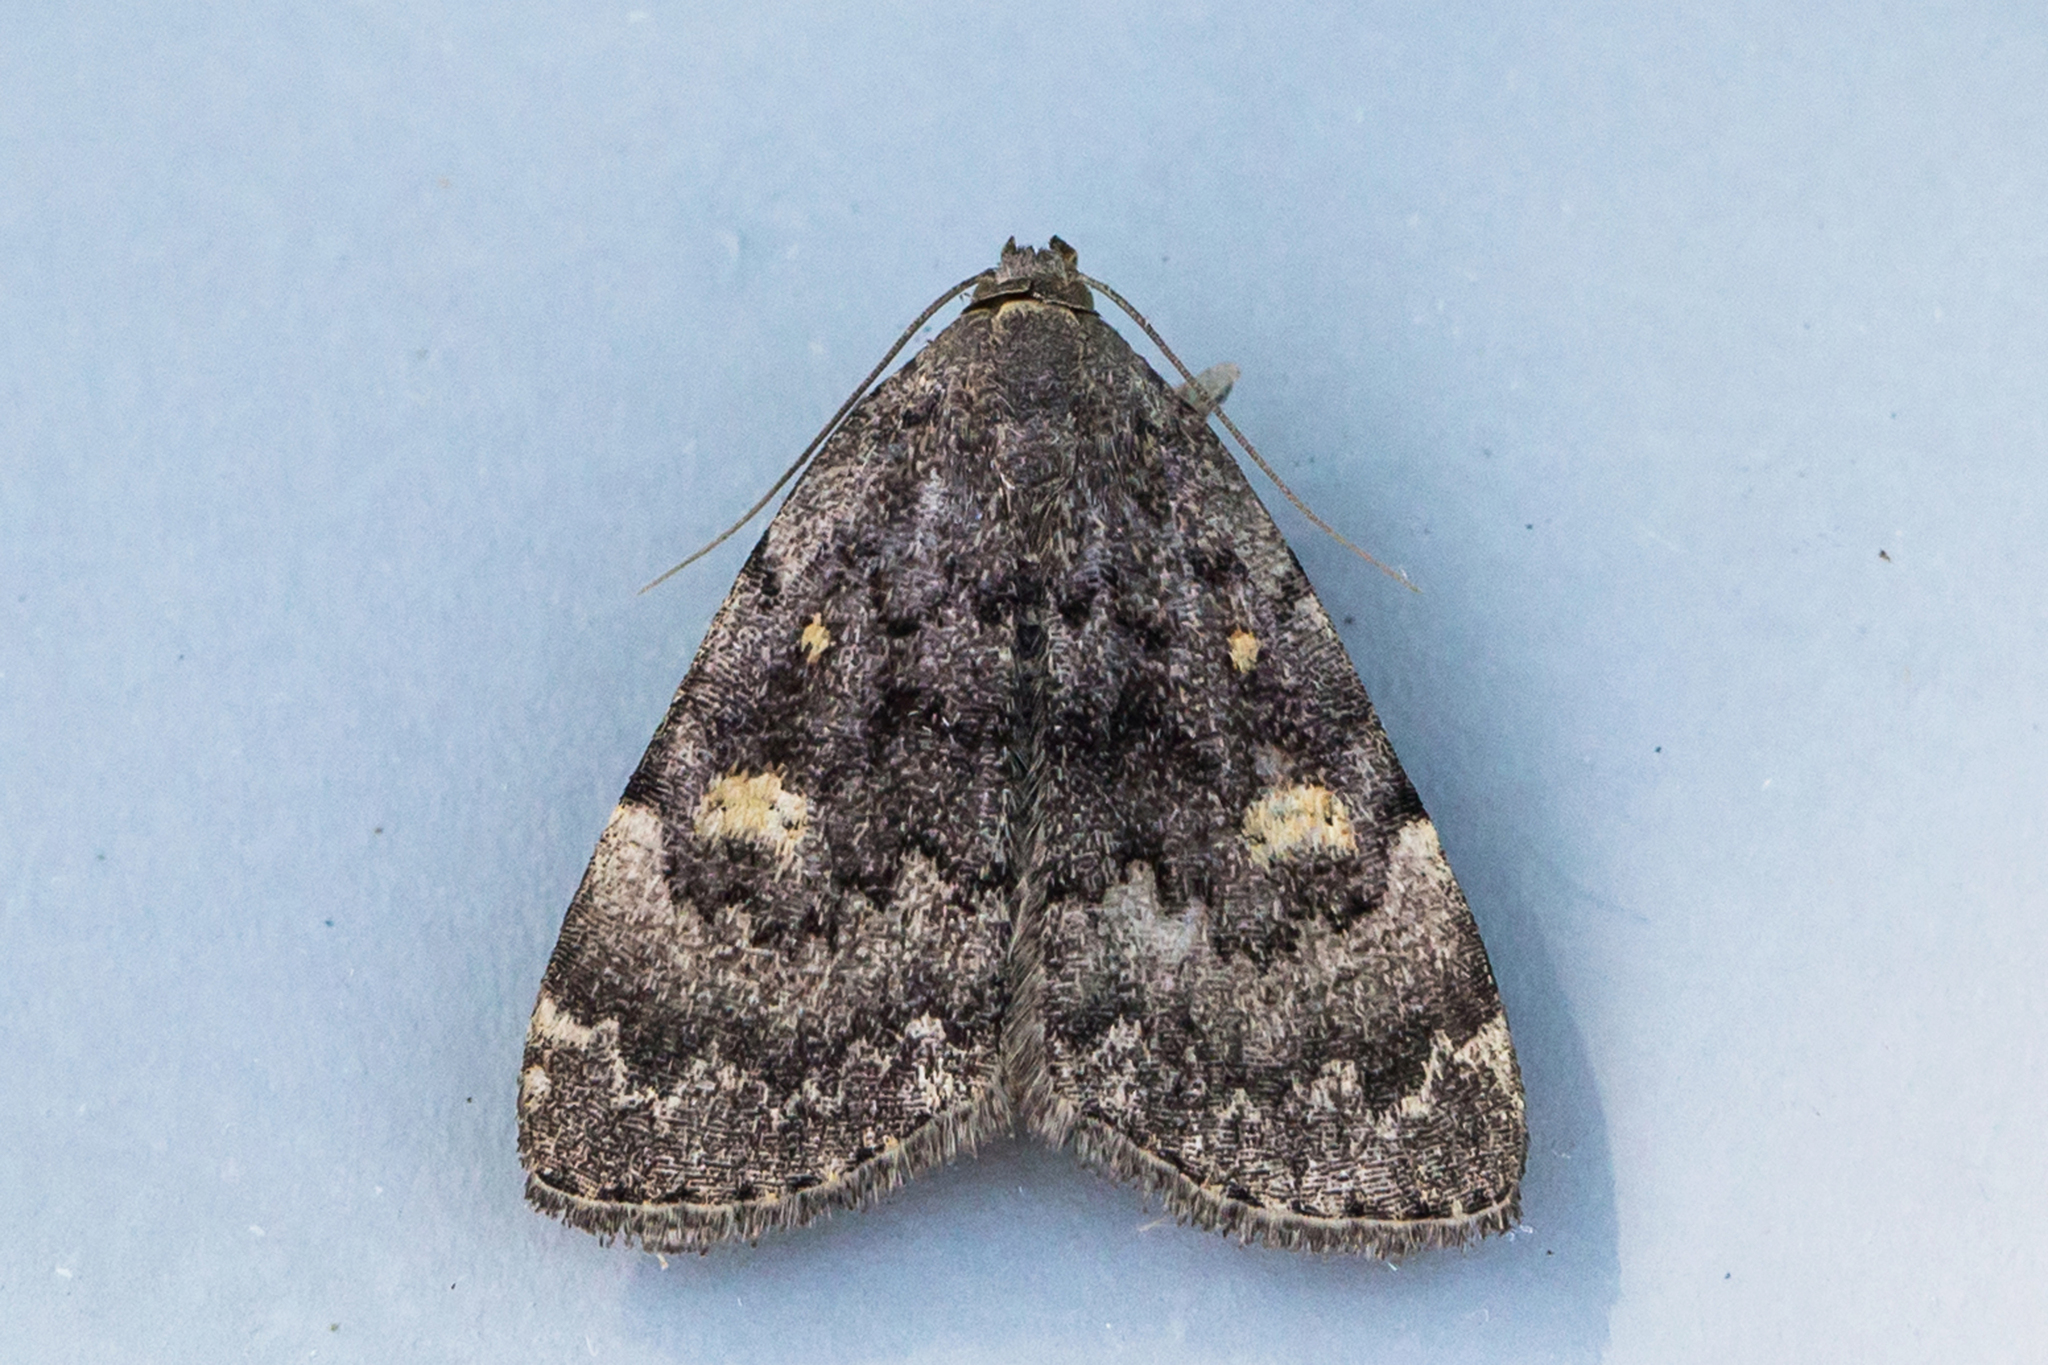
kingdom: Animalia
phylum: Arthropoda
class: Insecta
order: Lepidoptera
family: Erebidae
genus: Idia
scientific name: Idia aemula
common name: Common idia moth
